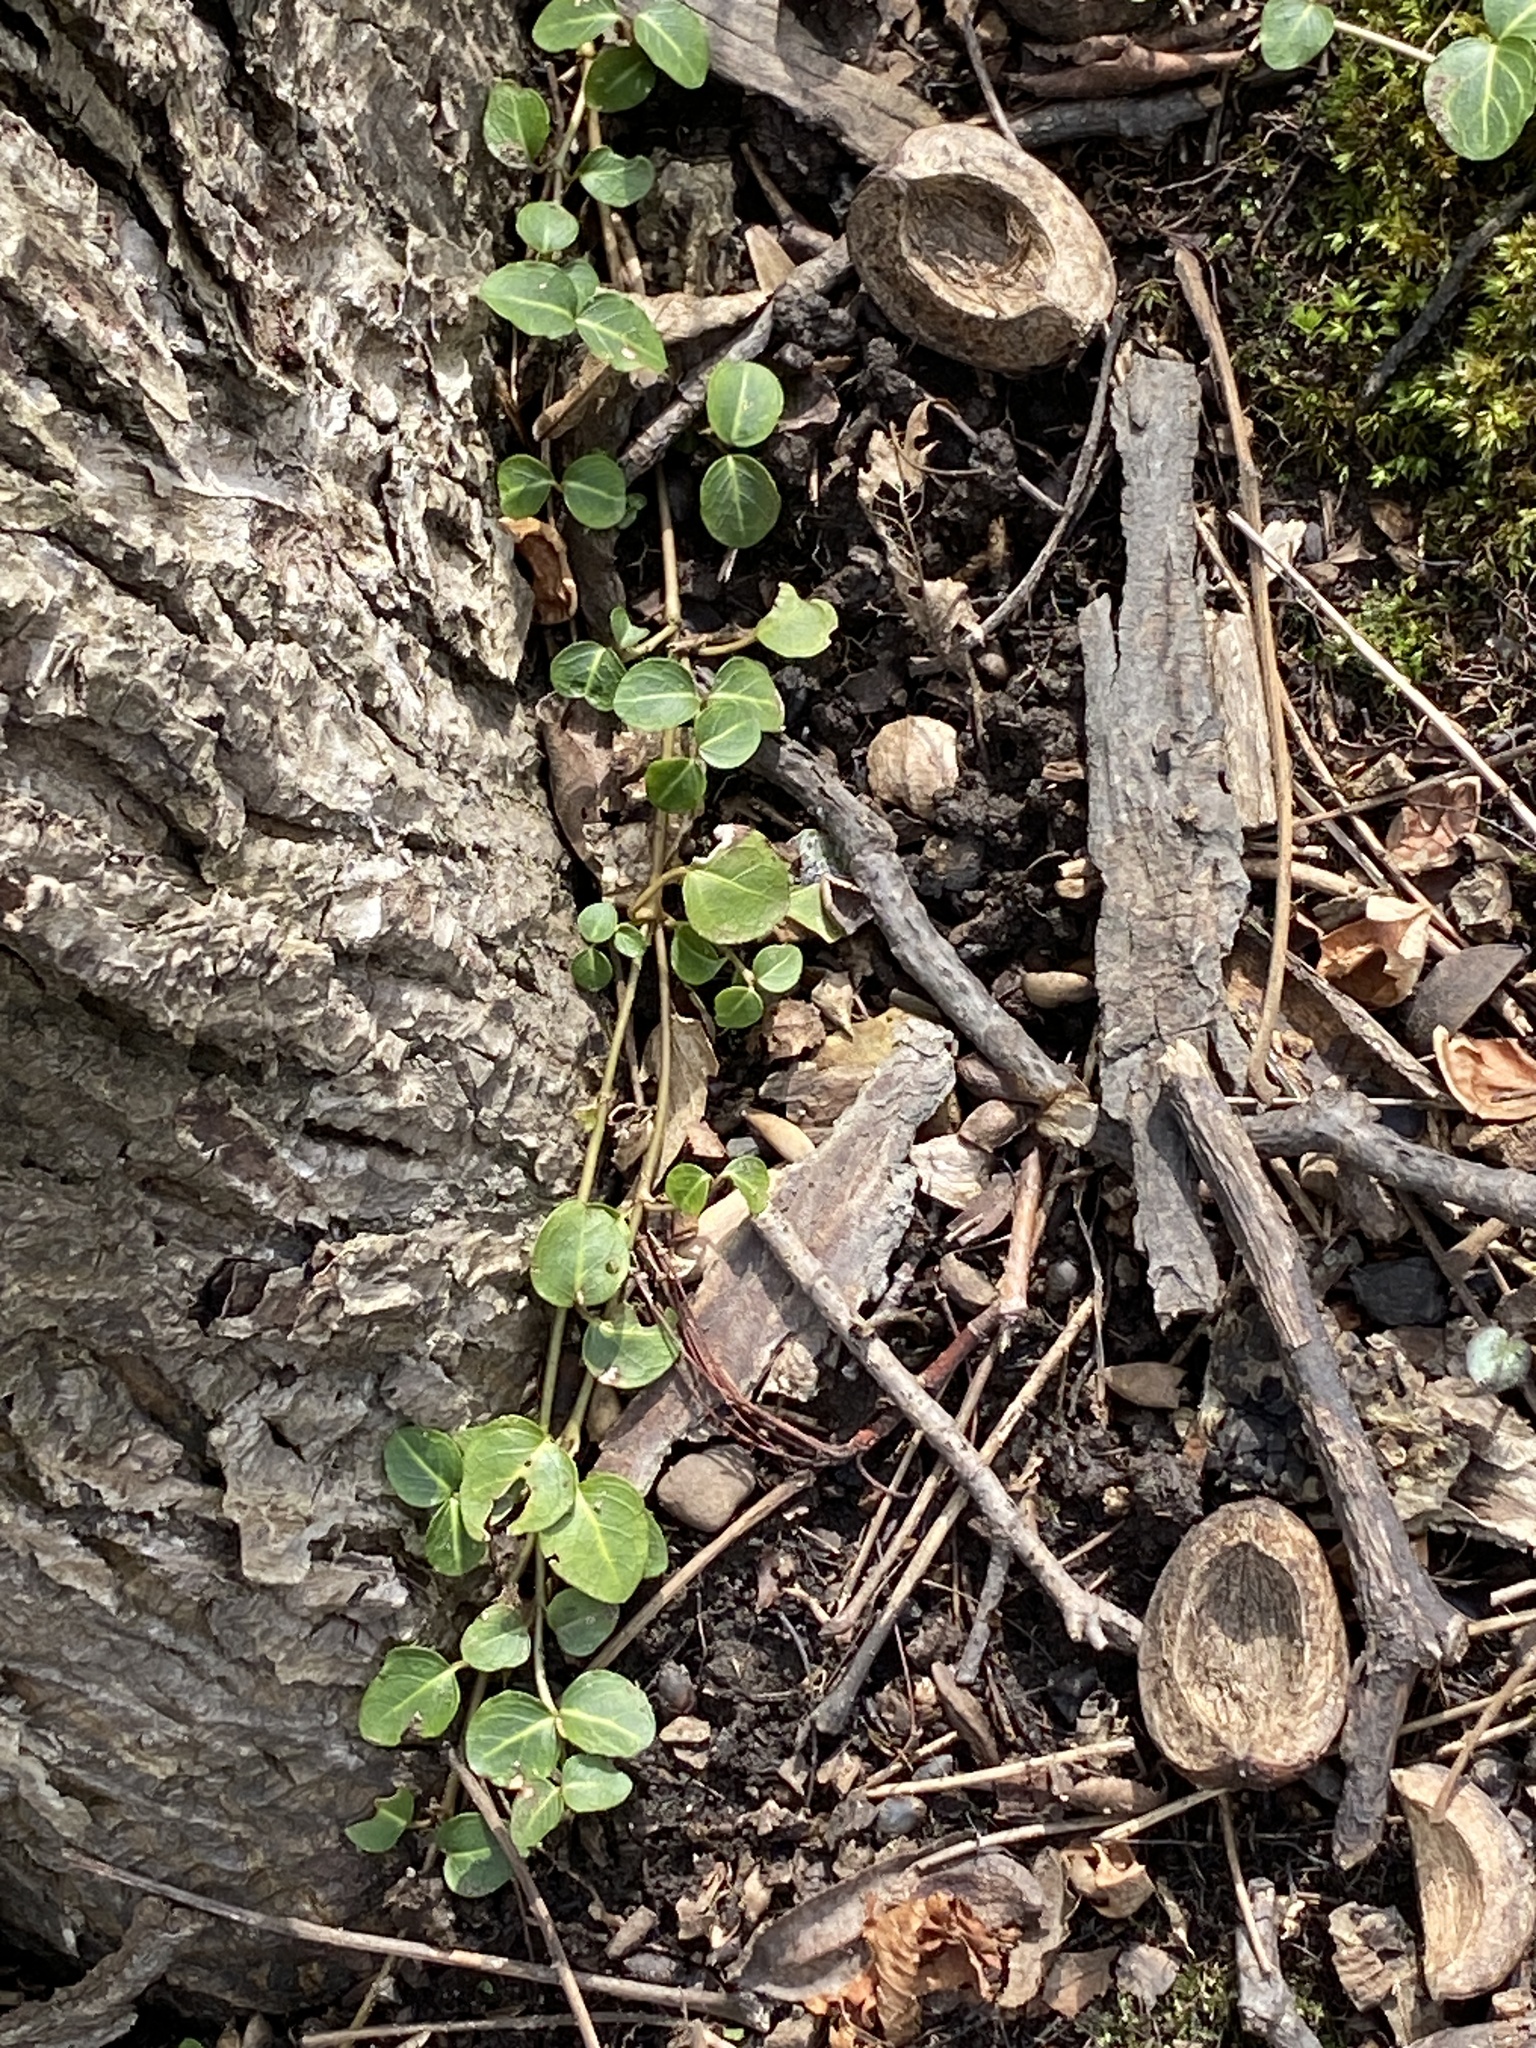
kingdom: Plantae
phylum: Tracheophyta
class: Magnoliopsida
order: Gentianales
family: Rubiaceae
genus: Mitchella
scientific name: Mitchella repens
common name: Partridge-berry
